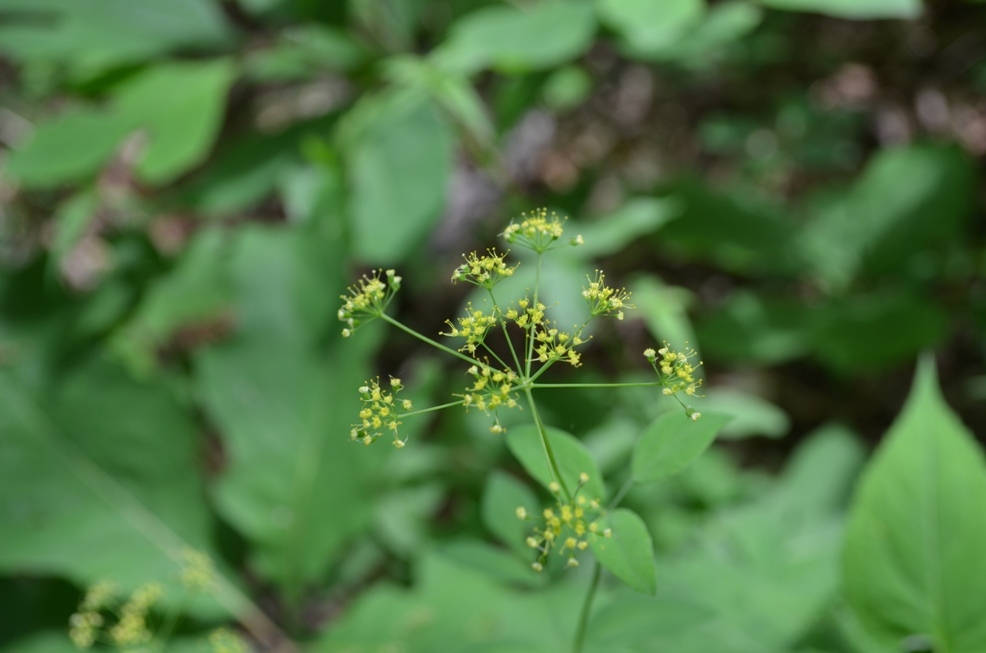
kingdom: Plantae
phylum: Tracheophyta
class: Magnoliopsida
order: Apiales
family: Apiaceae
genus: Taenidia
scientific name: Taenidia integerrima
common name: Golden alexander
